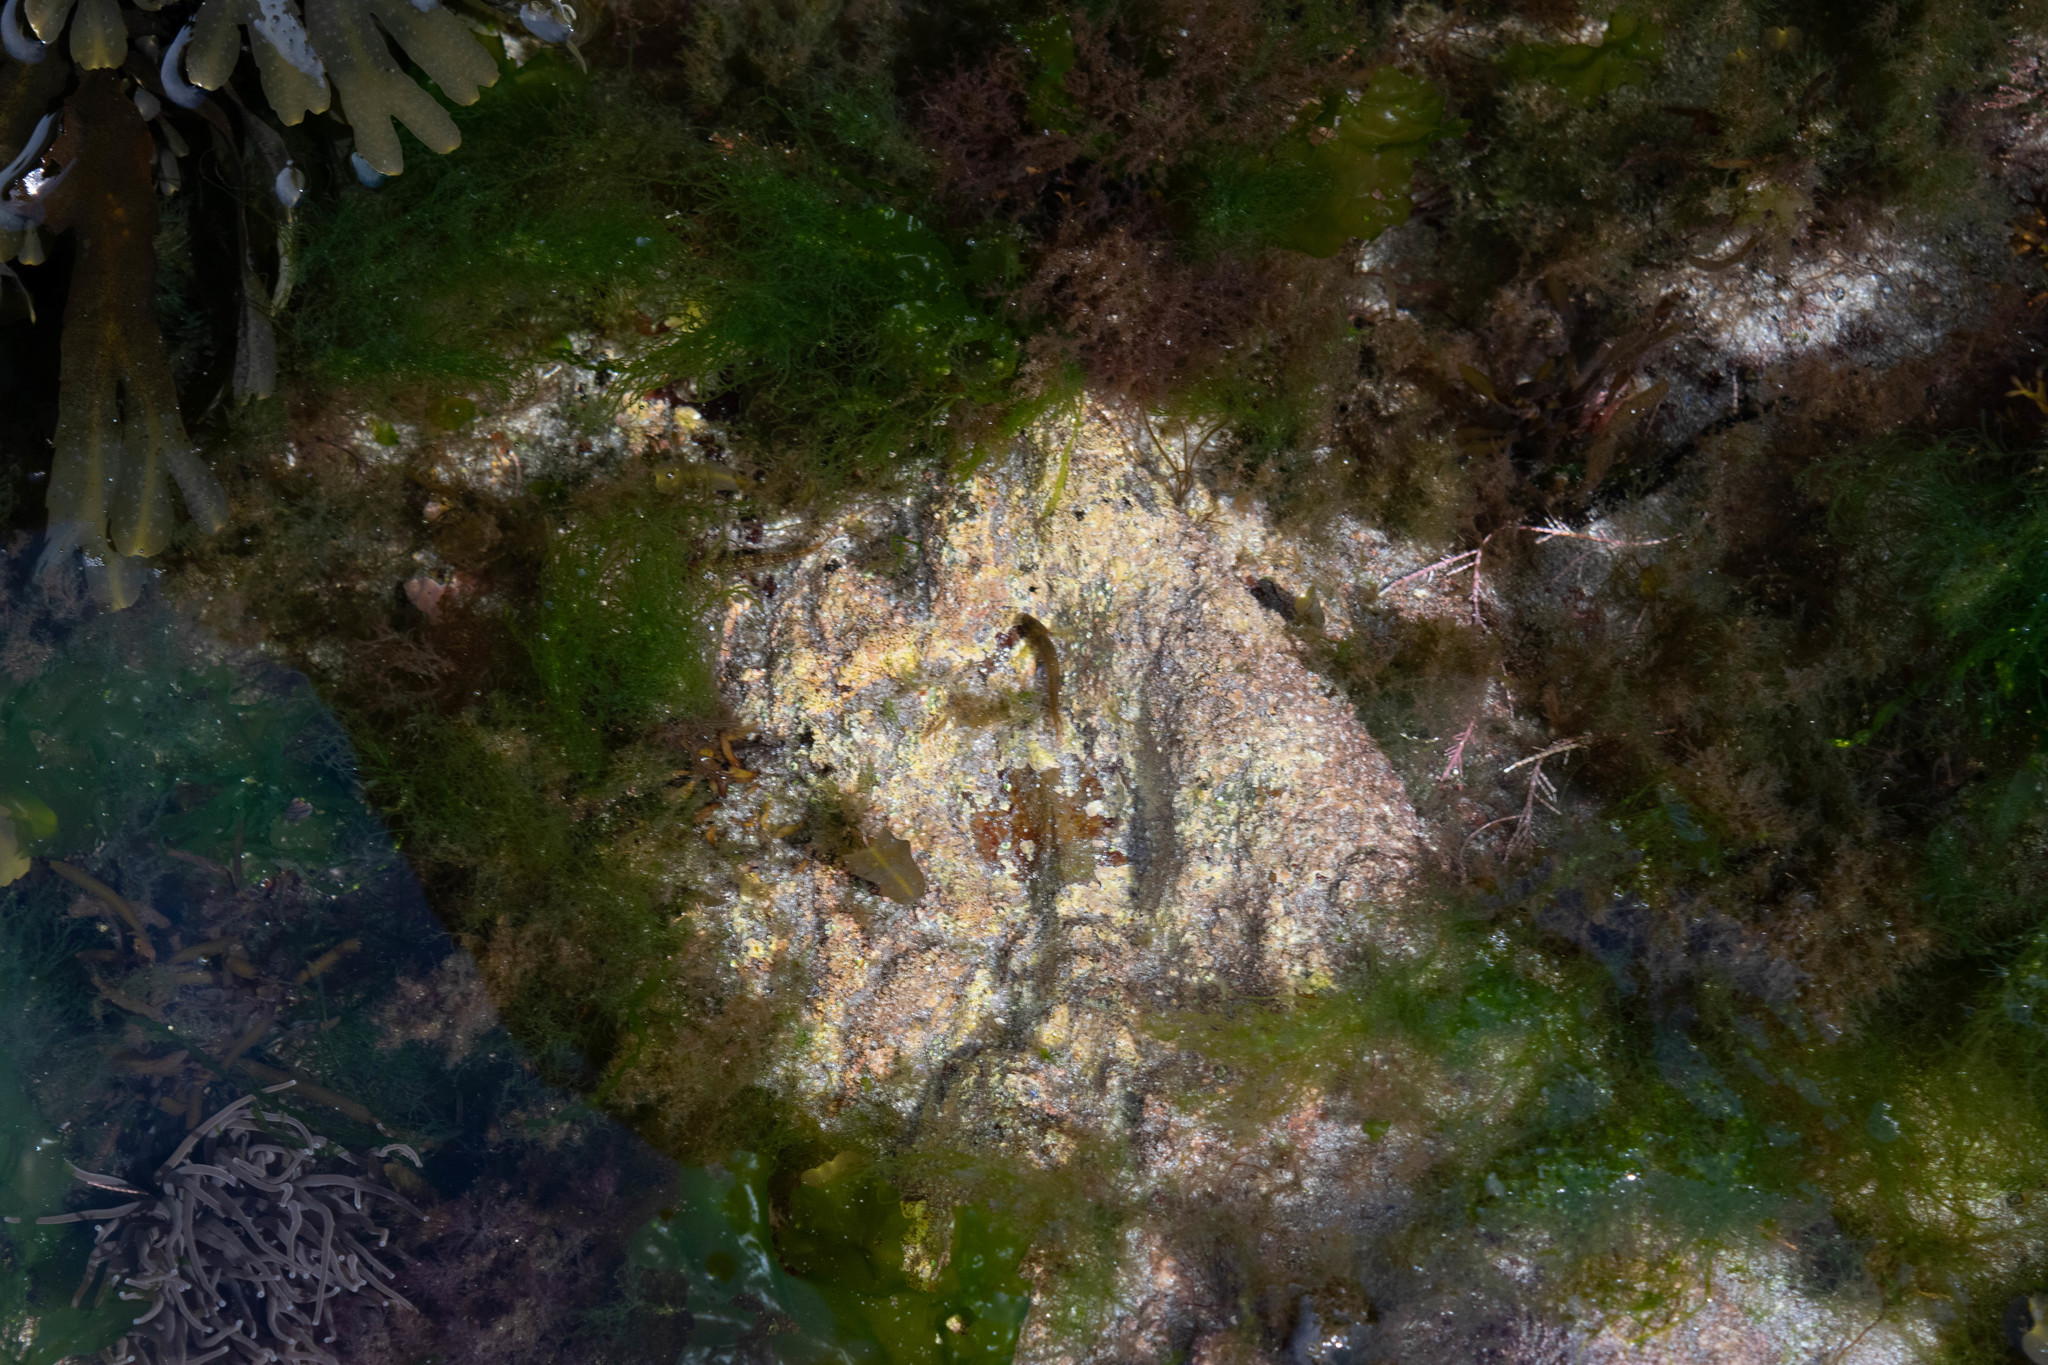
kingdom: Animalia
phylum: Chordata
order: Perciformes
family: Blenniidae
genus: Lipophrys
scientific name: Lipophrys pholis
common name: Shanny
